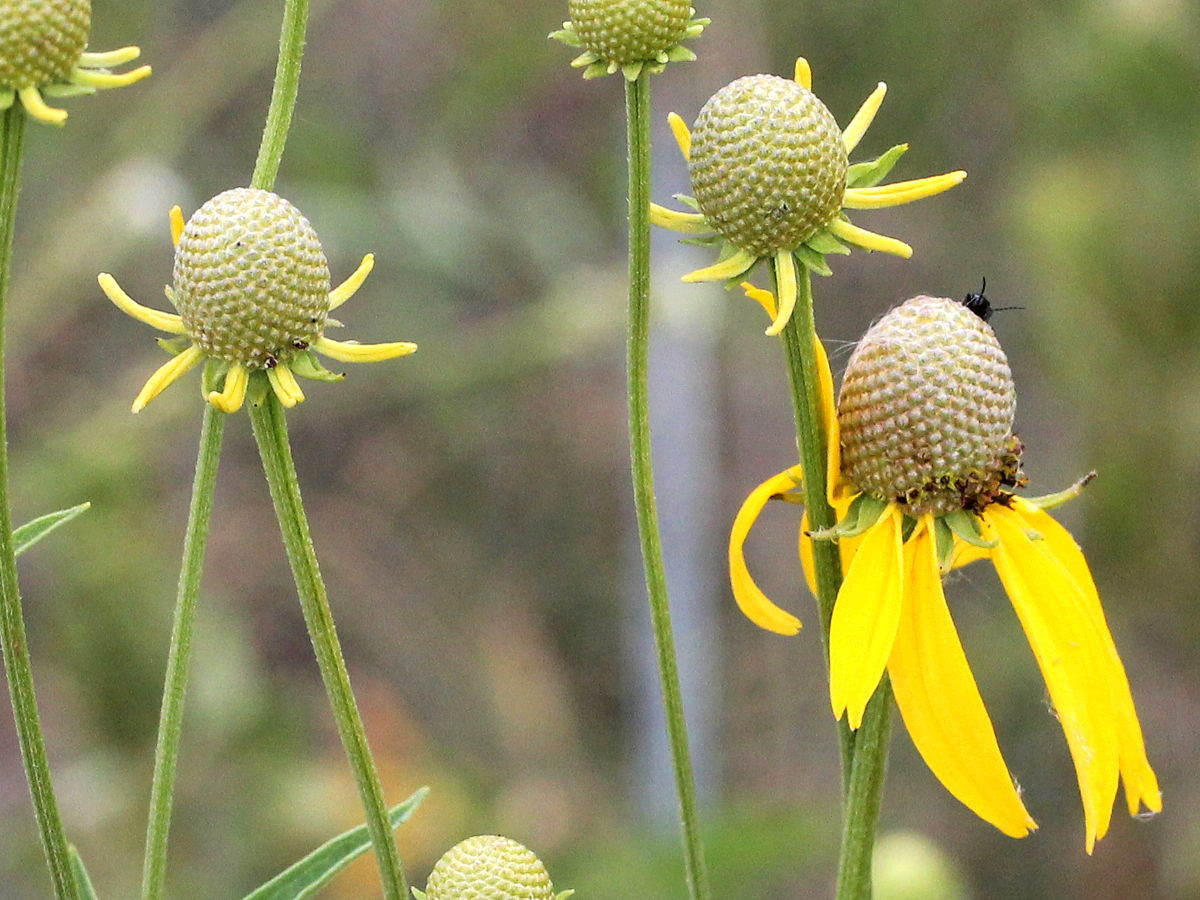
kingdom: Plantae
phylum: Tracheophyta
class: Magnoliopsida
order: Asterales
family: Asteraceae
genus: Ratibida
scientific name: Ratibida pinnata
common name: Drooping prairie-coneflower
